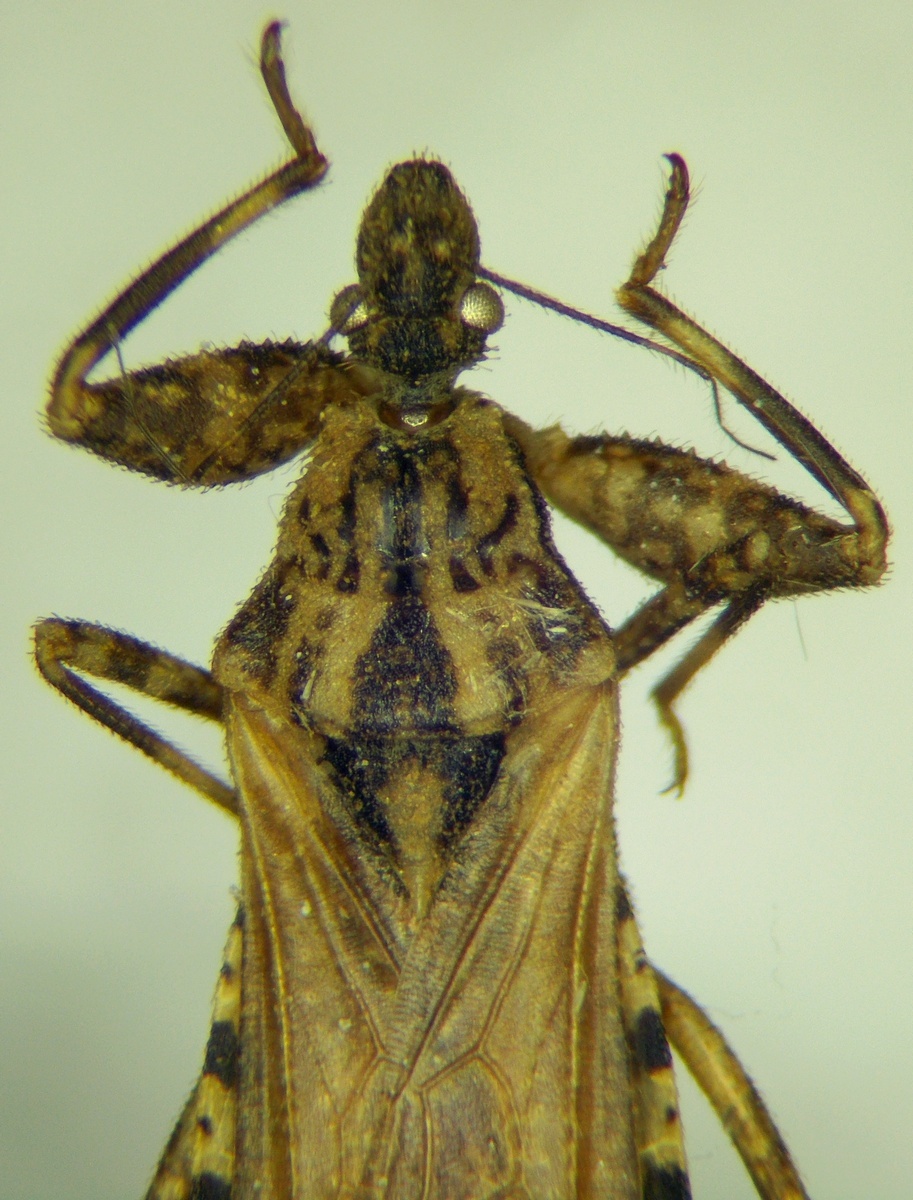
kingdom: Animalia
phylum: Arthropoda
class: Insecta
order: Hemiptera
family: Reduviidae
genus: Oncocephalus
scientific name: Oncocephalus squalidus
